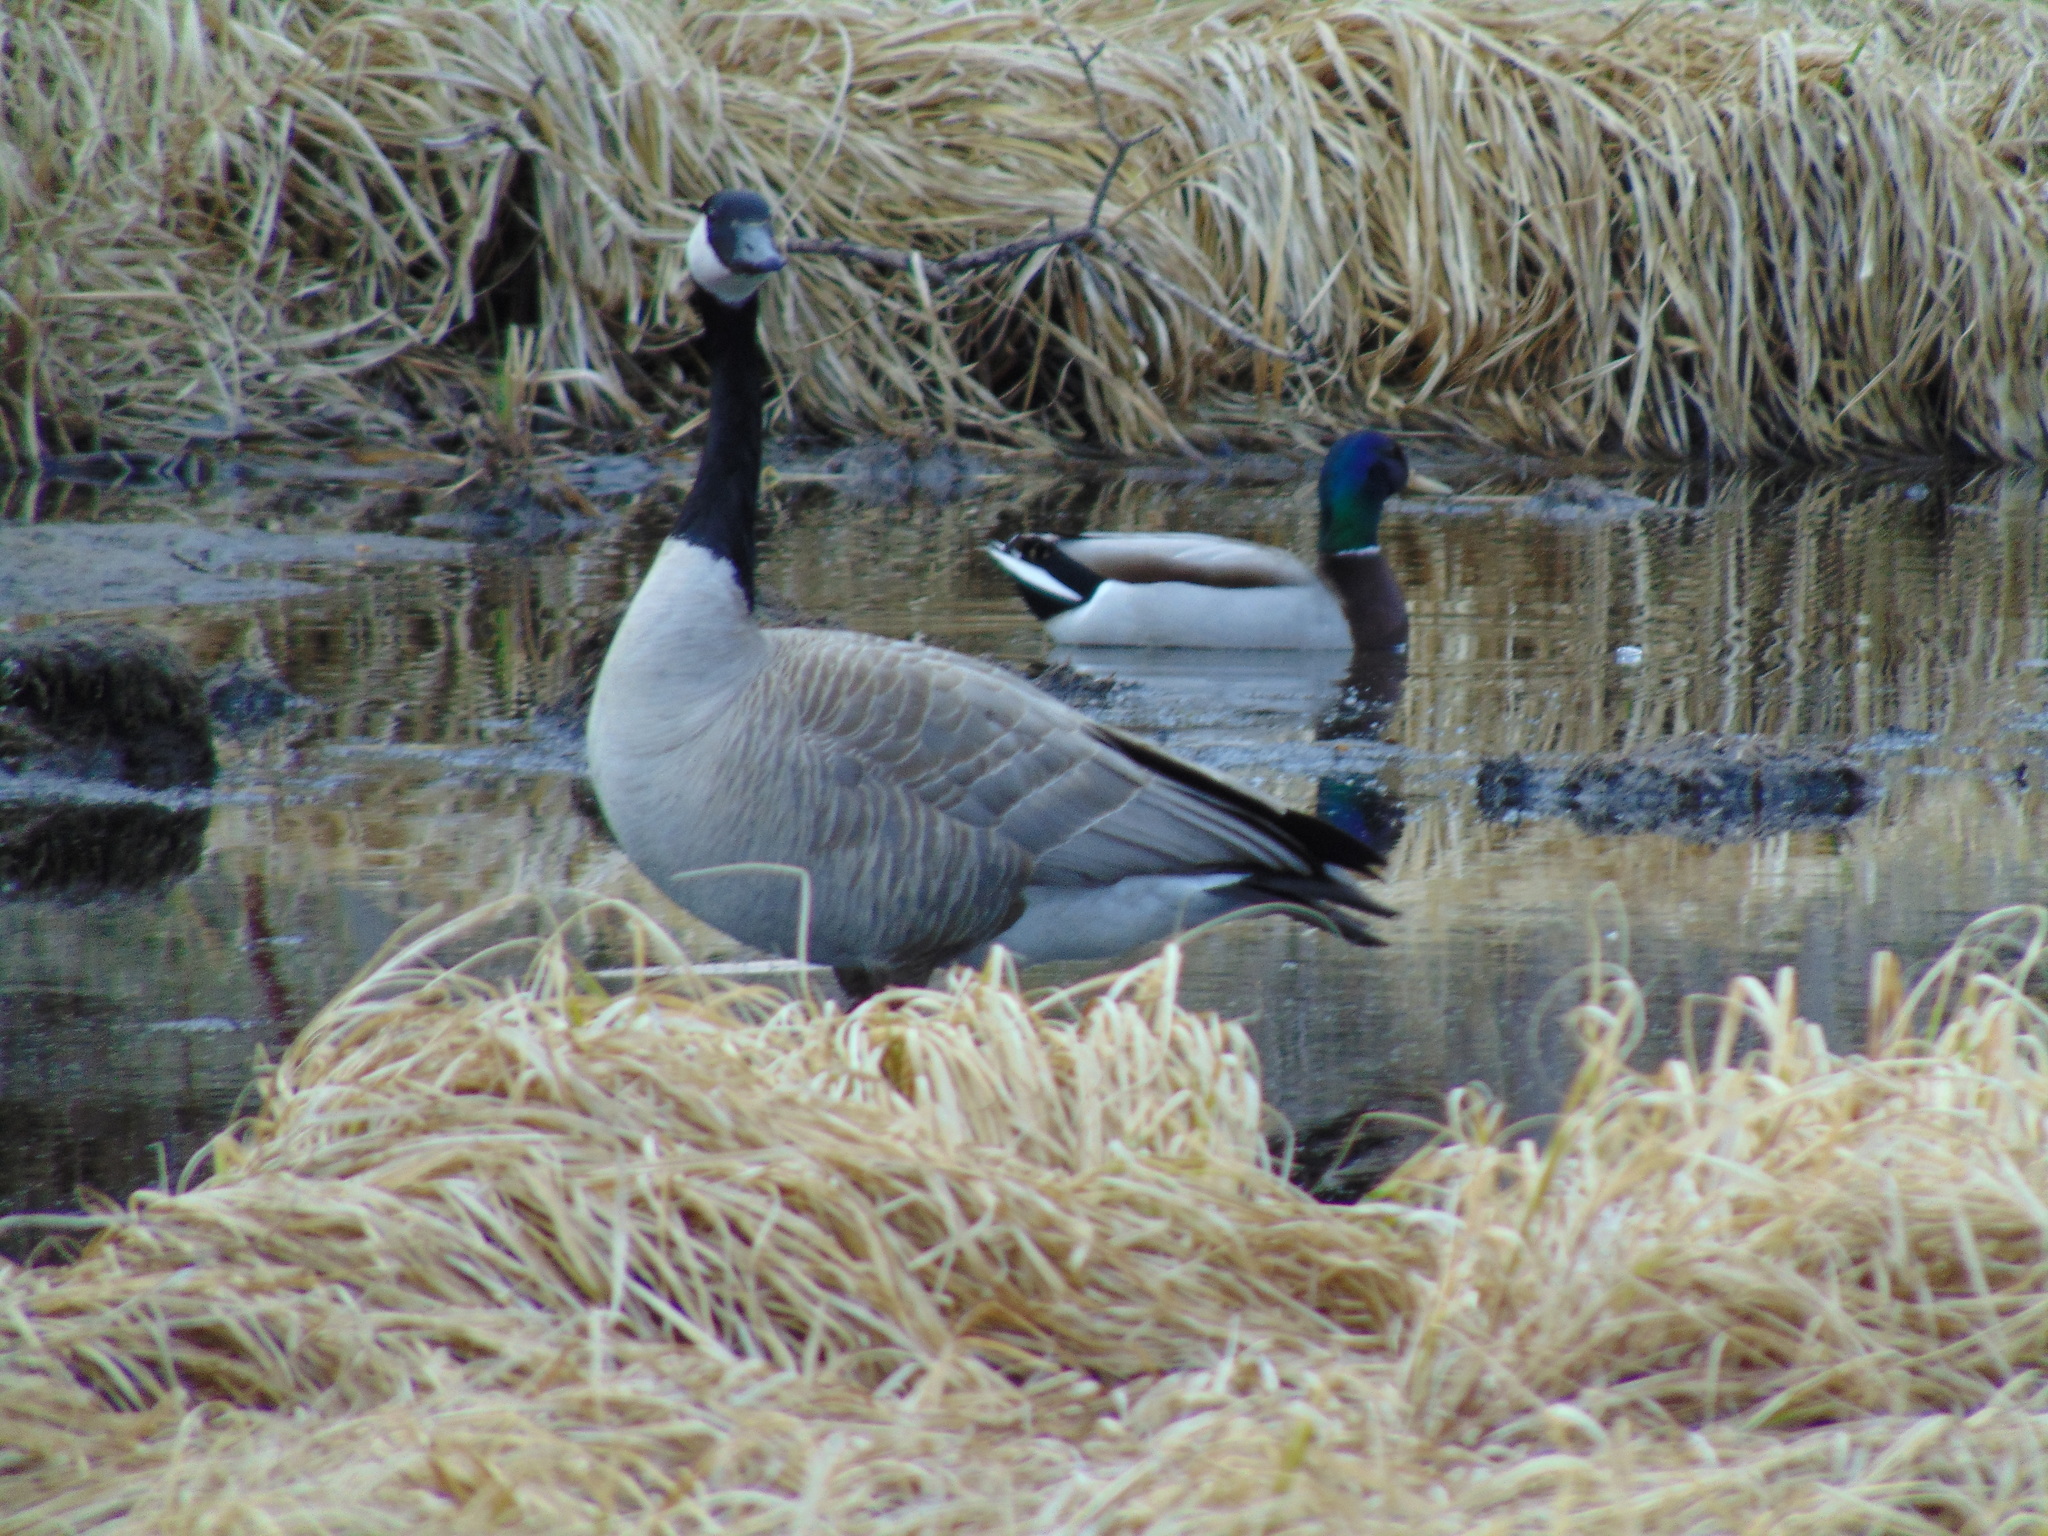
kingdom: Animalia
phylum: Chordata
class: Aves
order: Anseriformes
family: Anatidae
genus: Branta
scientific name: Branta canadensis
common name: Canada goose
